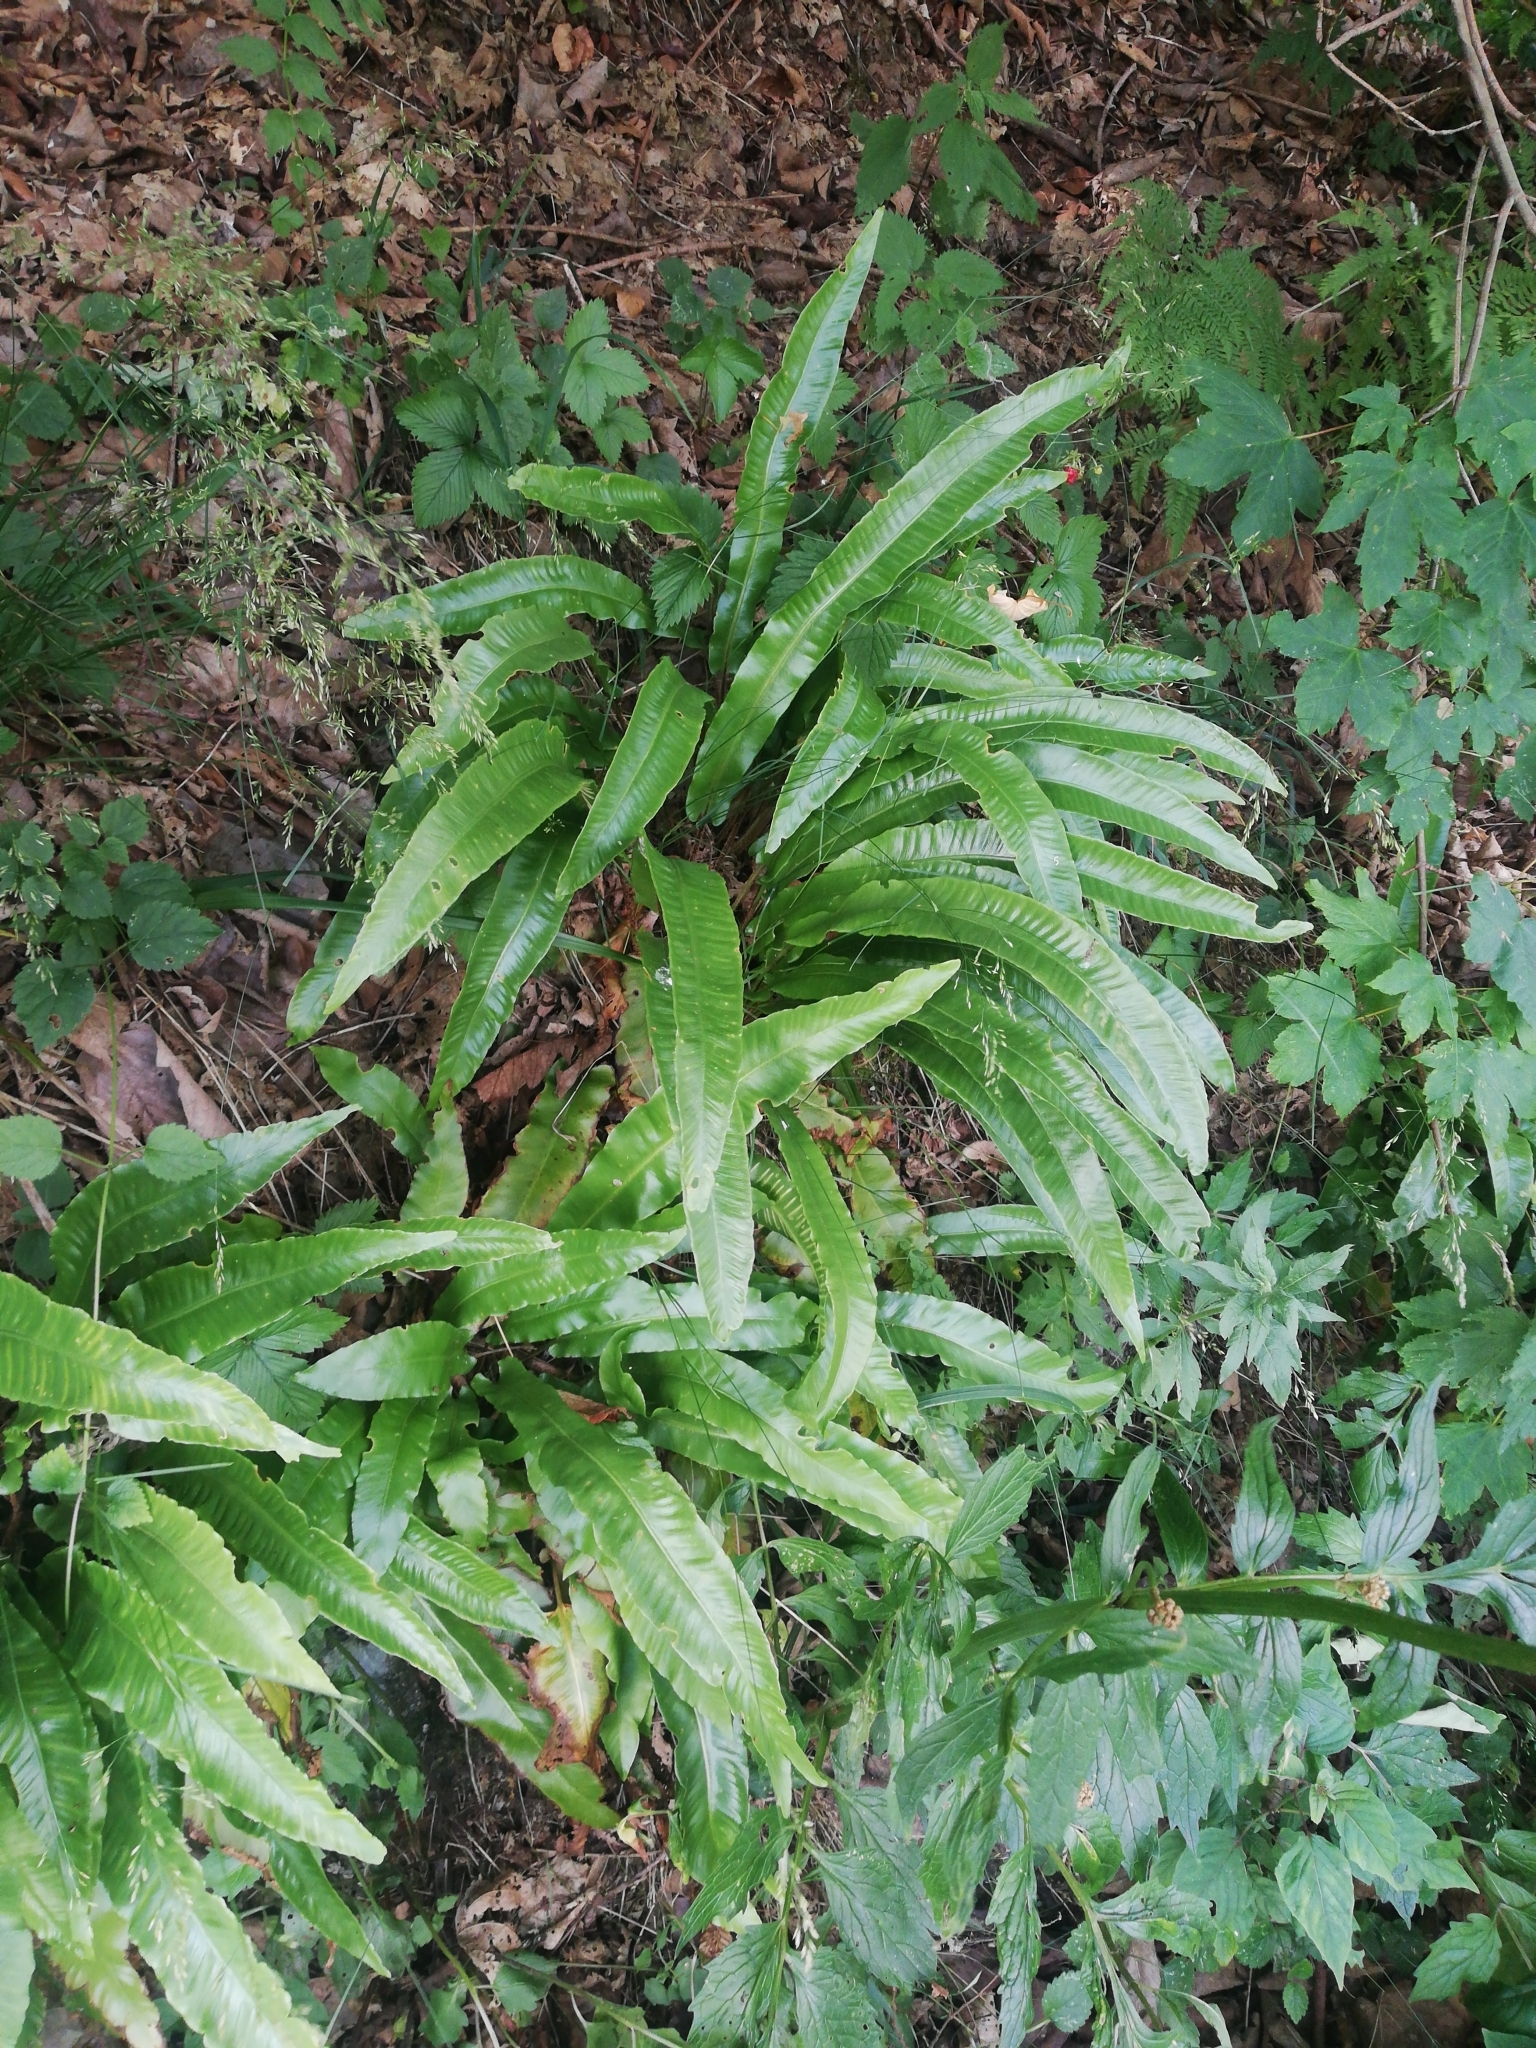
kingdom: Plantae
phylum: Tracheophyta
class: Polypodiopsida
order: Polypodiales
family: Aspleniaceae
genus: Asplenium
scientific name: Asplenium scolopendrium
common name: Hart's-tongue fern
